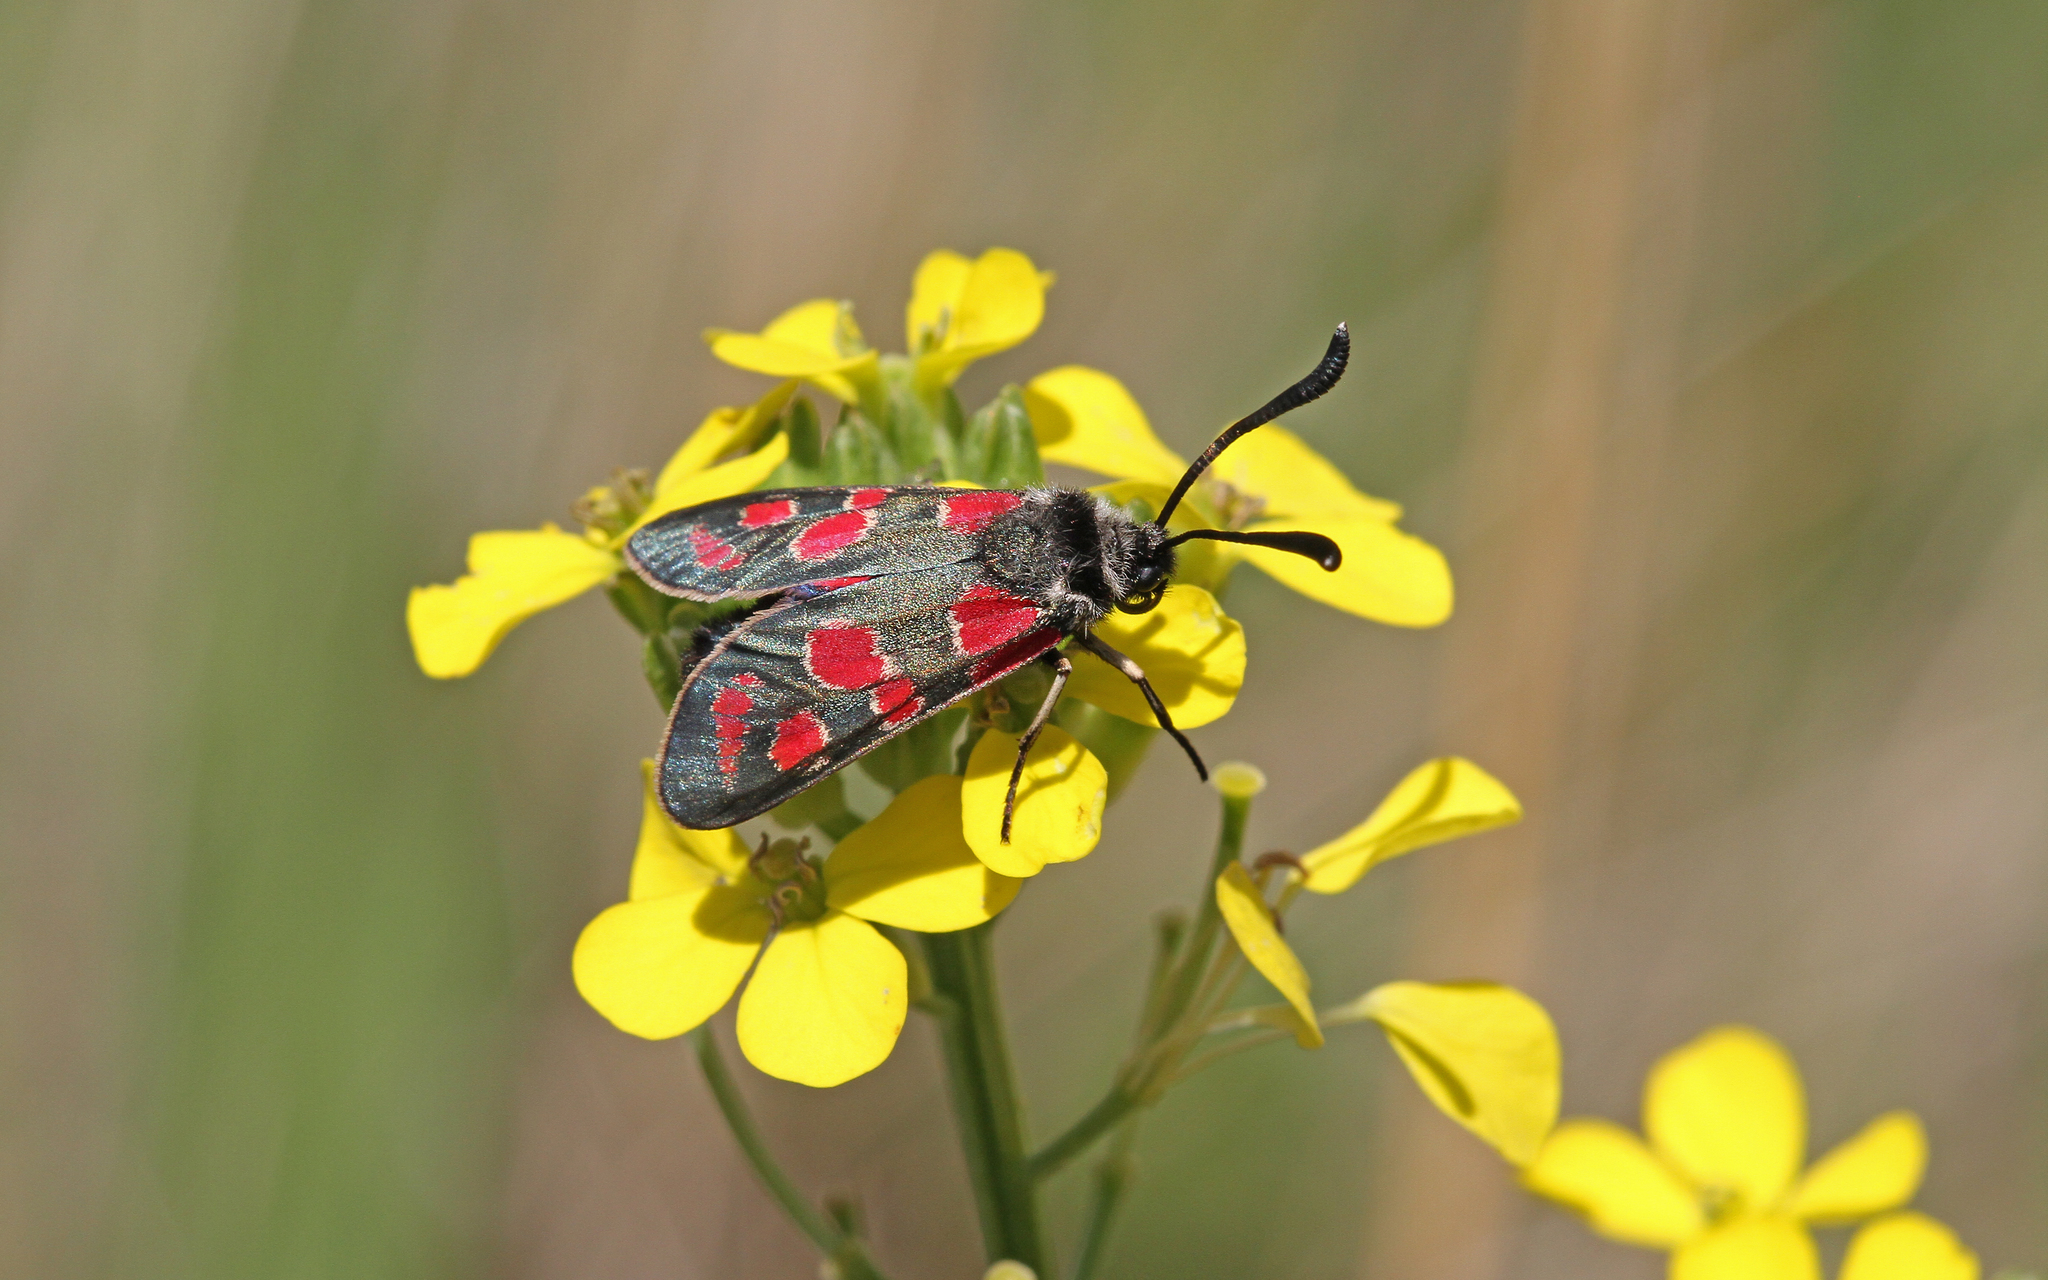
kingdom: Animalia
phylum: Arthropoda
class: Insecta
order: Lepidoptera
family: Zygaenidae
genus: Zygaena
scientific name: Zygaena carniolica
